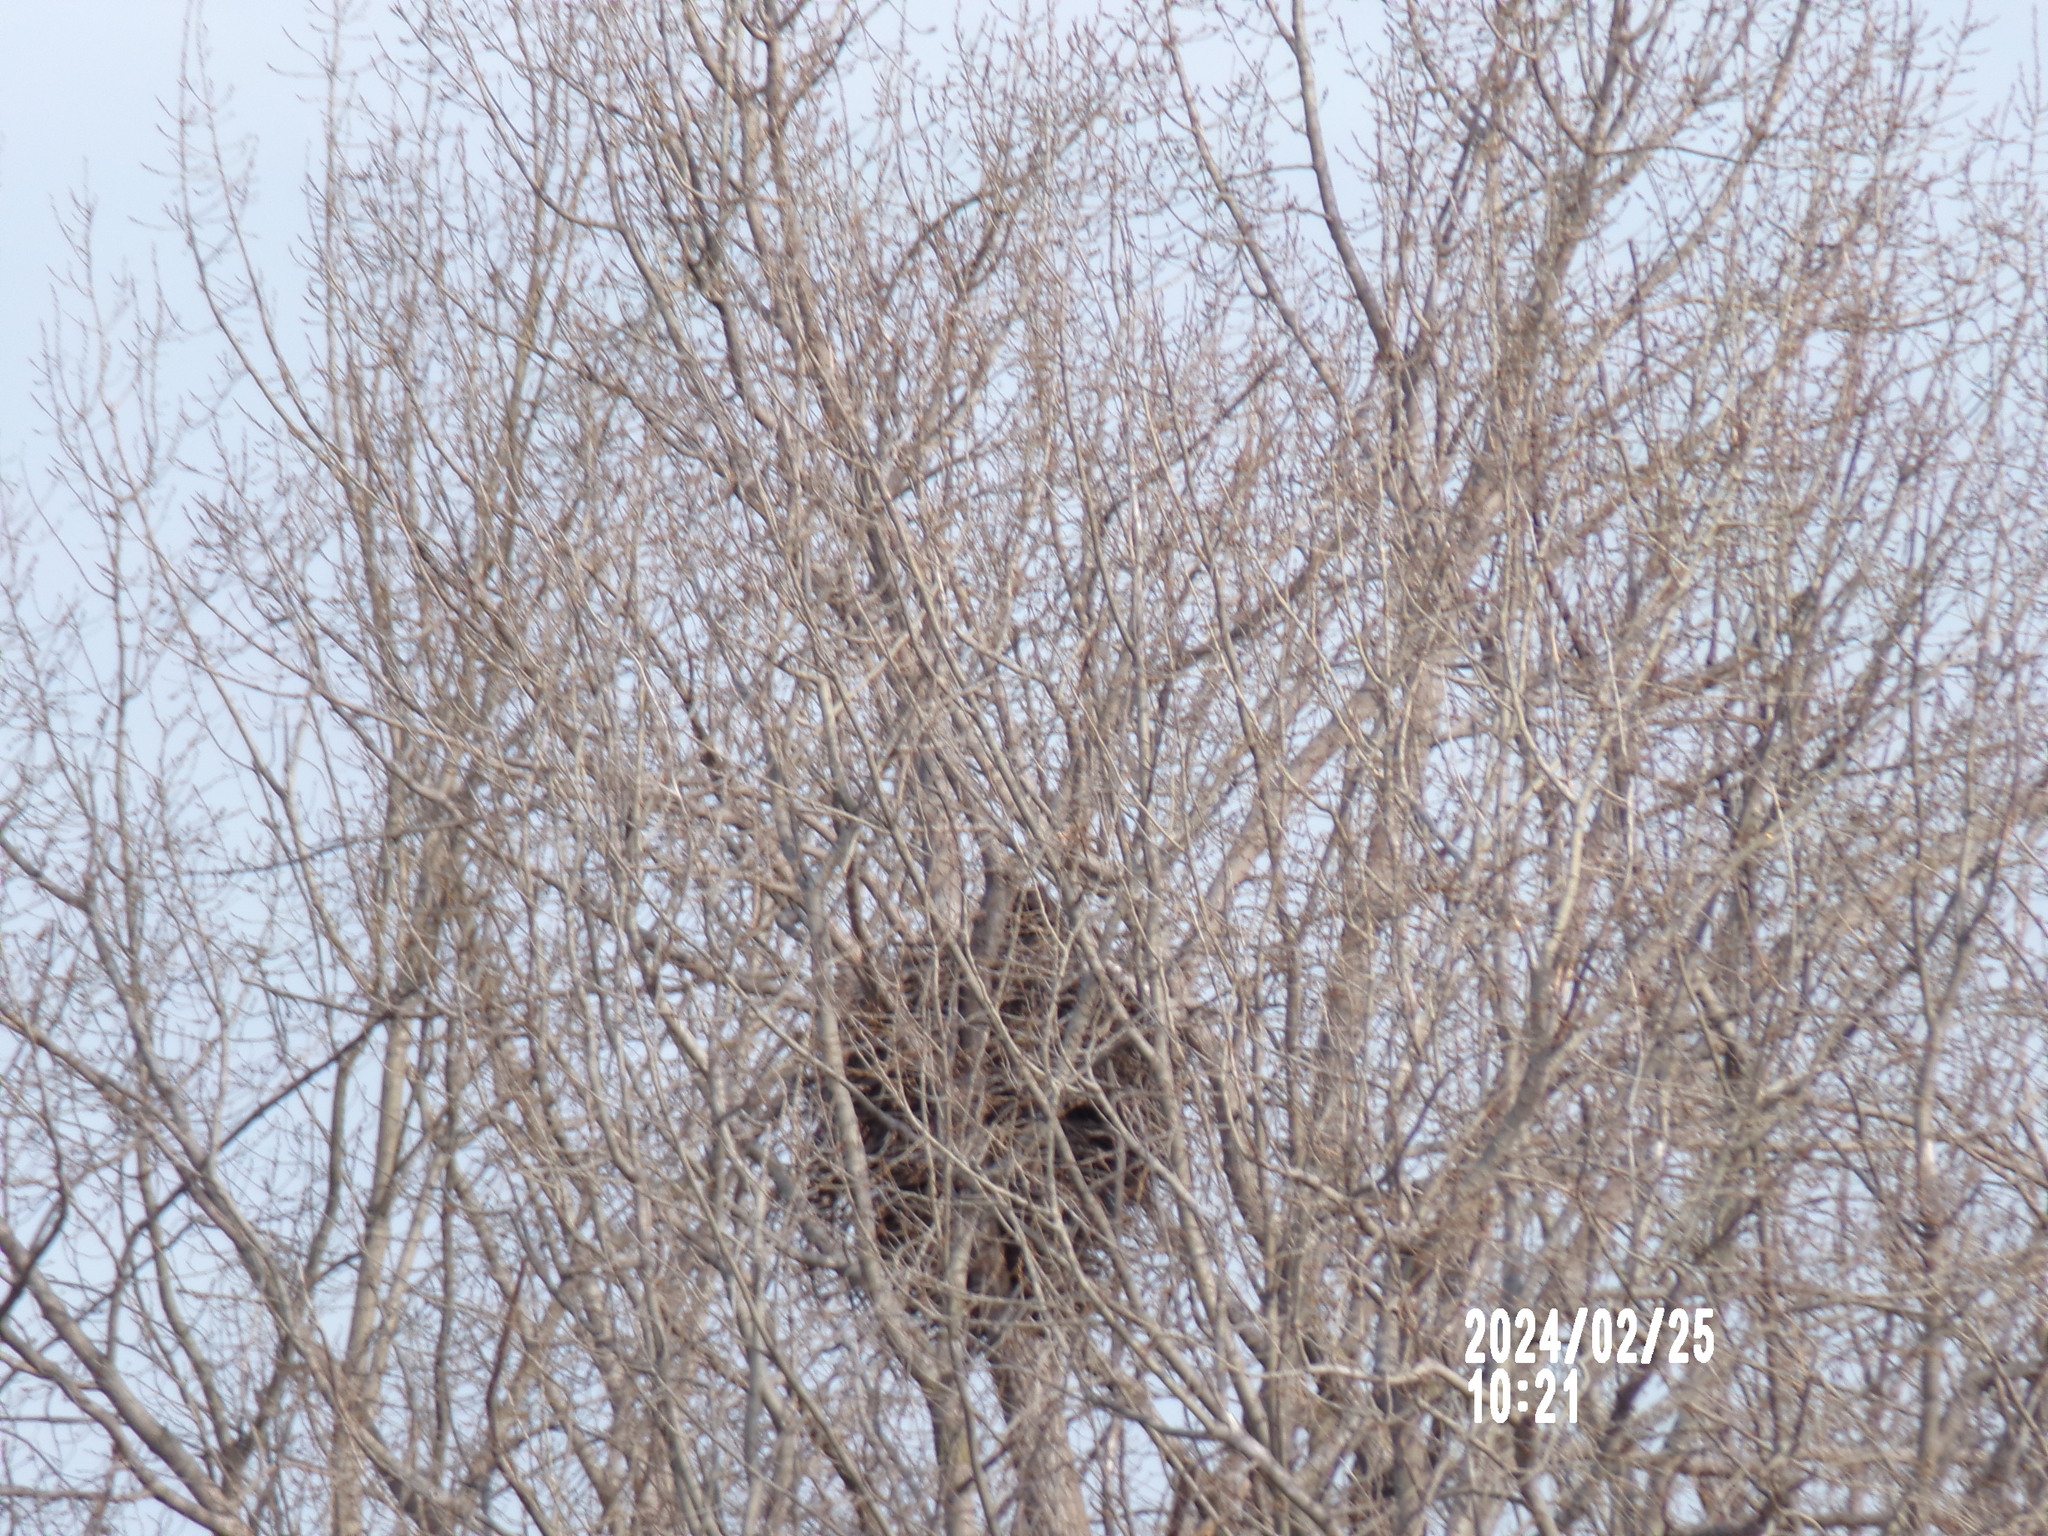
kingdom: Animalia
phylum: Chordata
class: Aves
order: Accipitriformes
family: Accipitridae
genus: Haliaeetus
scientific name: Haliaeetus leucocephalus
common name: Bald eagle
